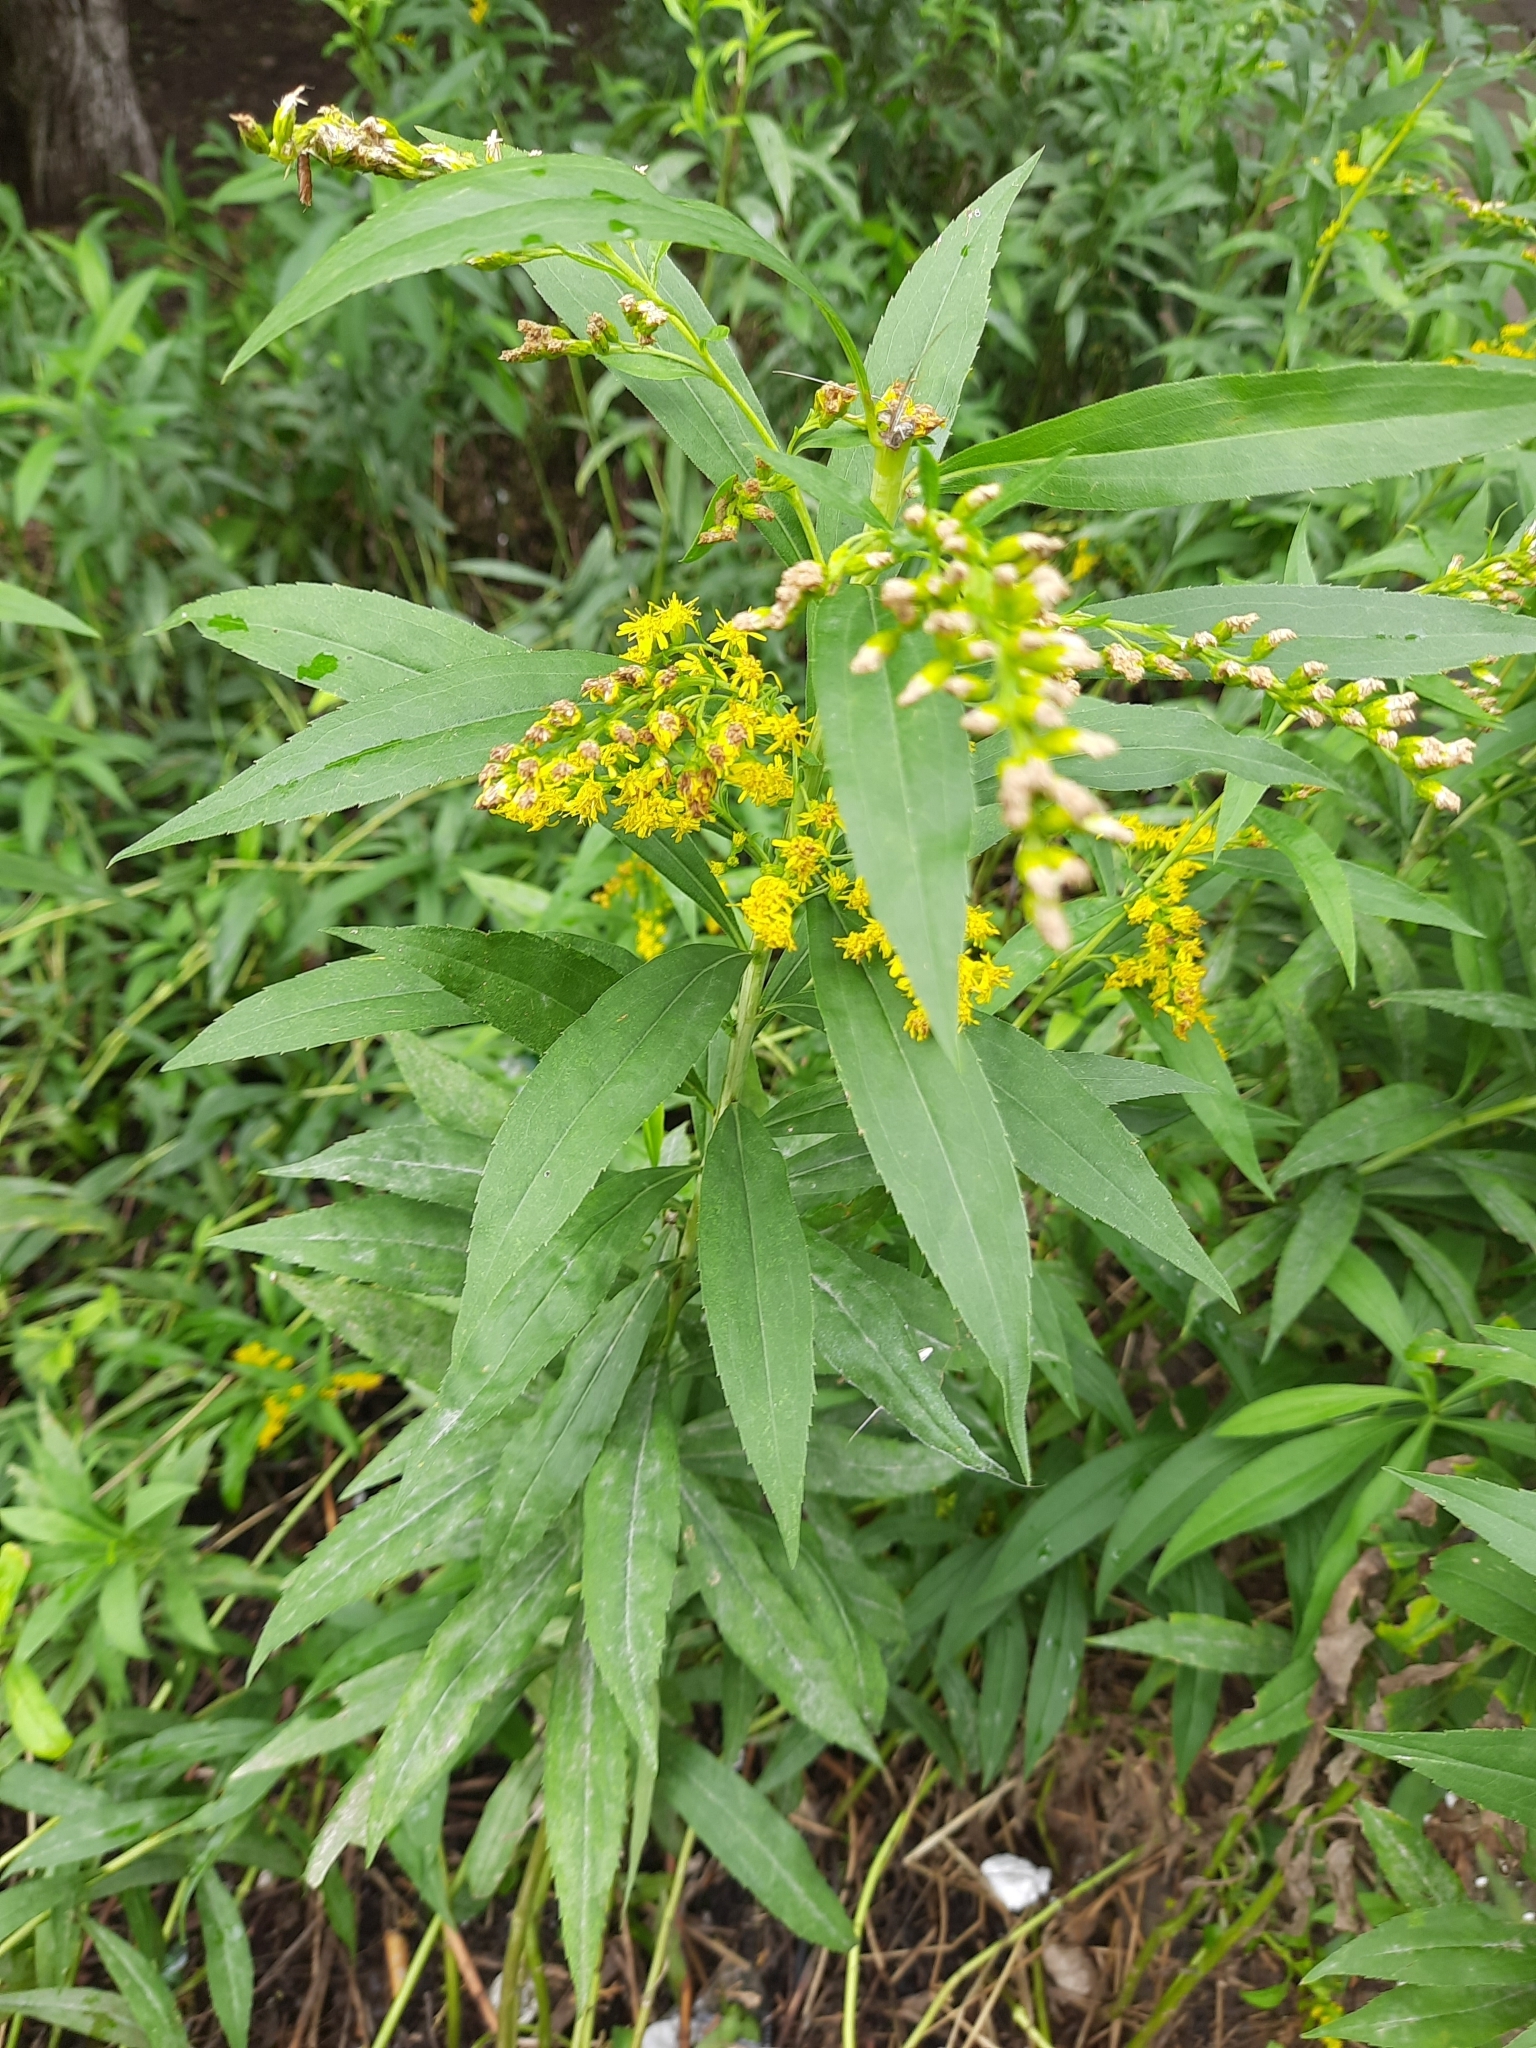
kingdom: Plantae
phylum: Tracheophyta
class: Magnoliopsida
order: Asterales
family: Asteraceae
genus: Solidago
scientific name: Solidago gigantea
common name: Giant goldenrod
